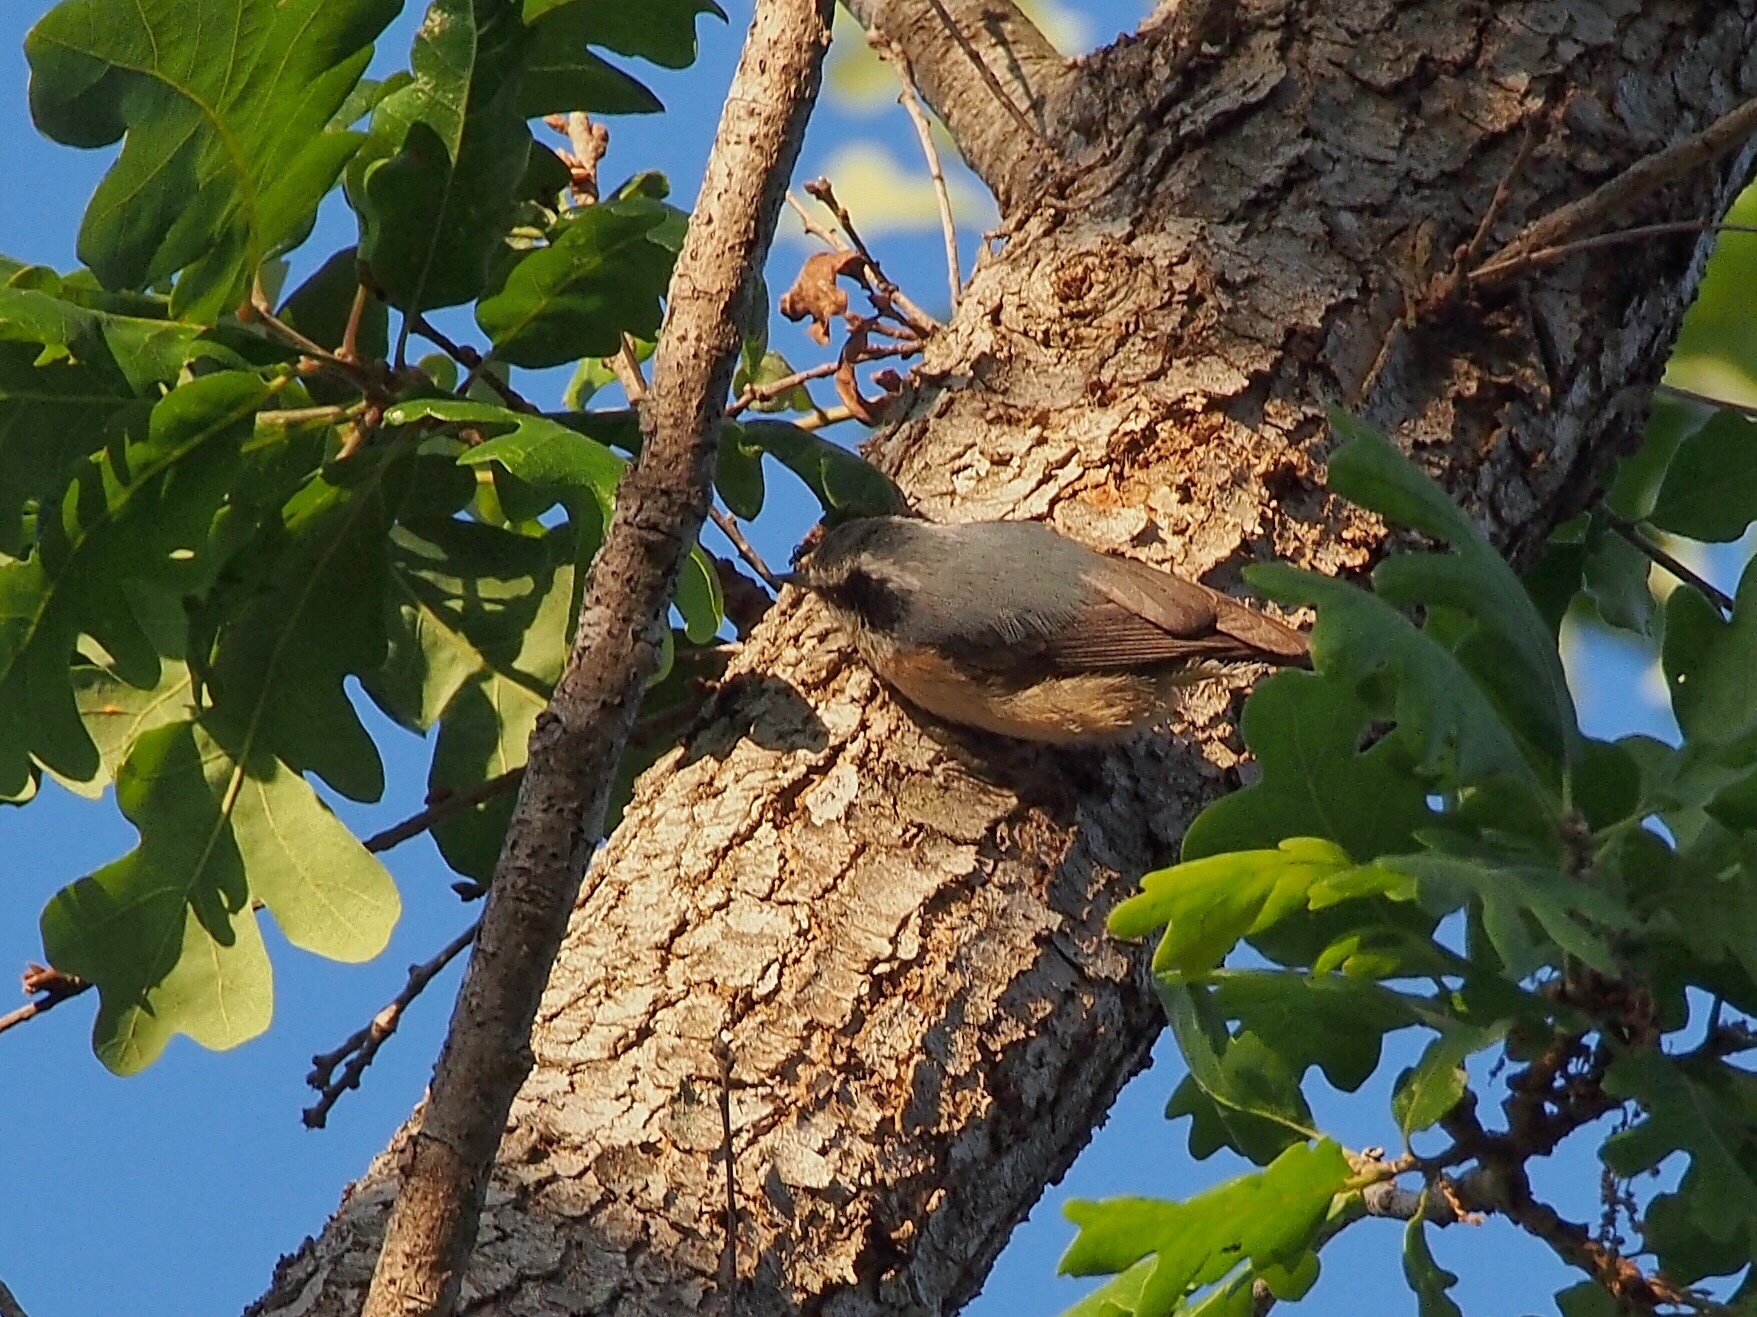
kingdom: Animalia
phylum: Chordata
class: Aves
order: Passeriformes
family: Sittidae
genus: Sitta
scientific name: Sitta canadensis
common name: Red-breasted nuthatch
